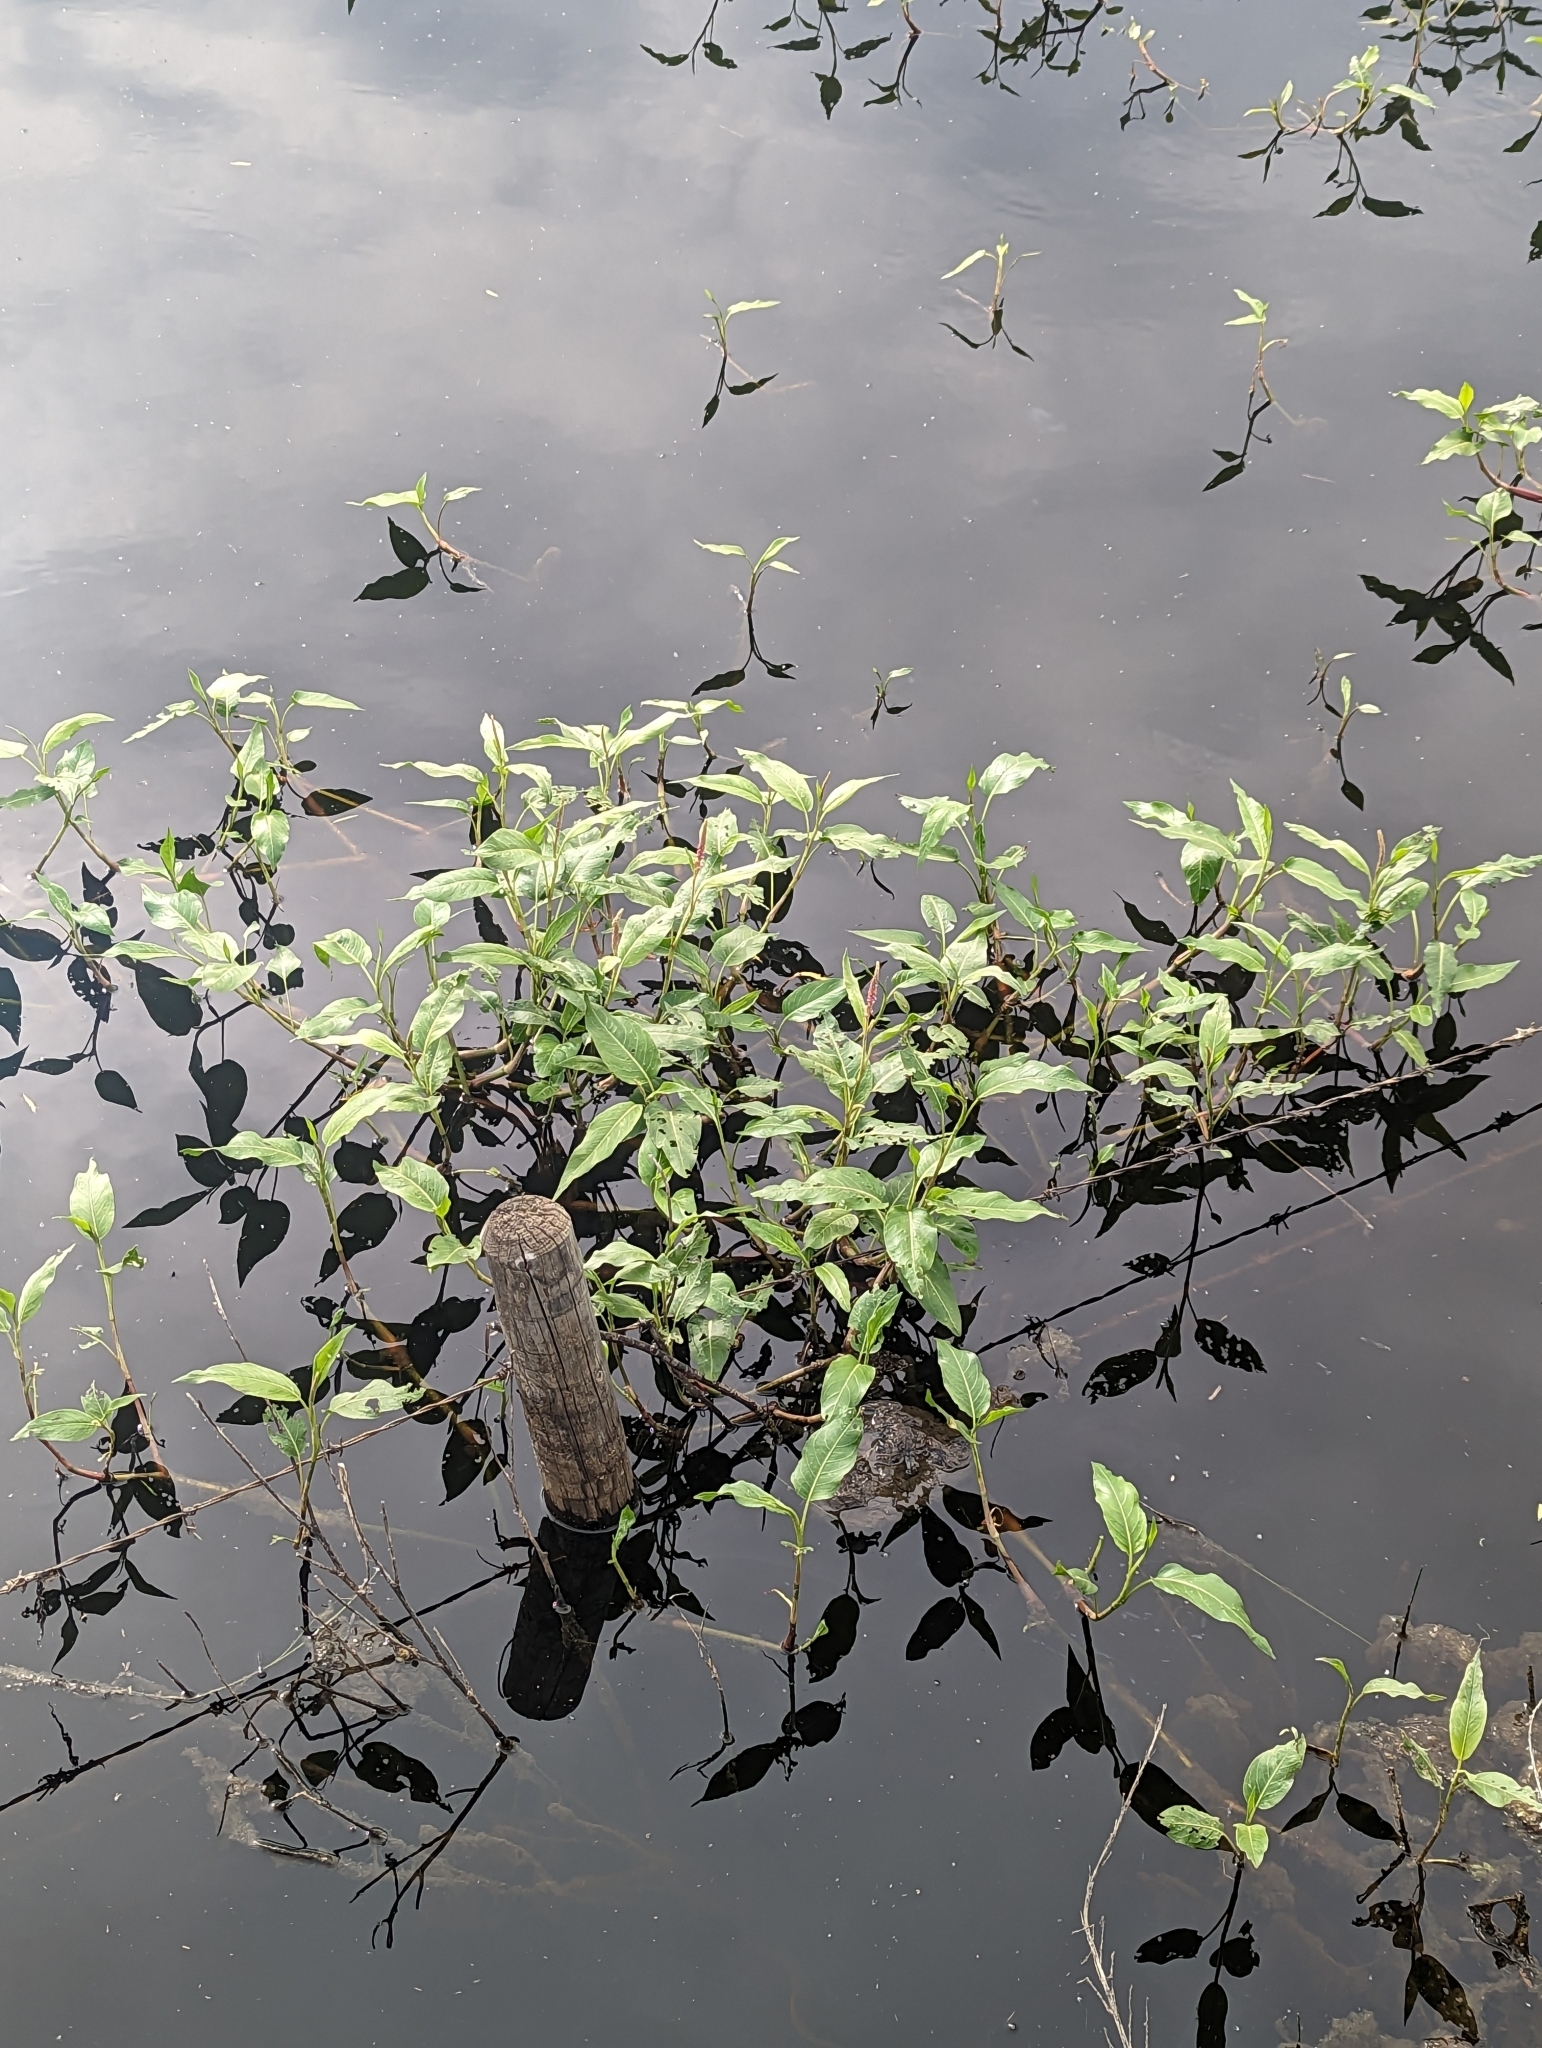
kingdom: Plantae
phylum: Tracheophyta
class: Magnoliopsida
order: Caryophyllales
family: Polygonaceae
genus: Persicaria
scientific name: Persicaria amphibia
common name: Amphibious bistort
